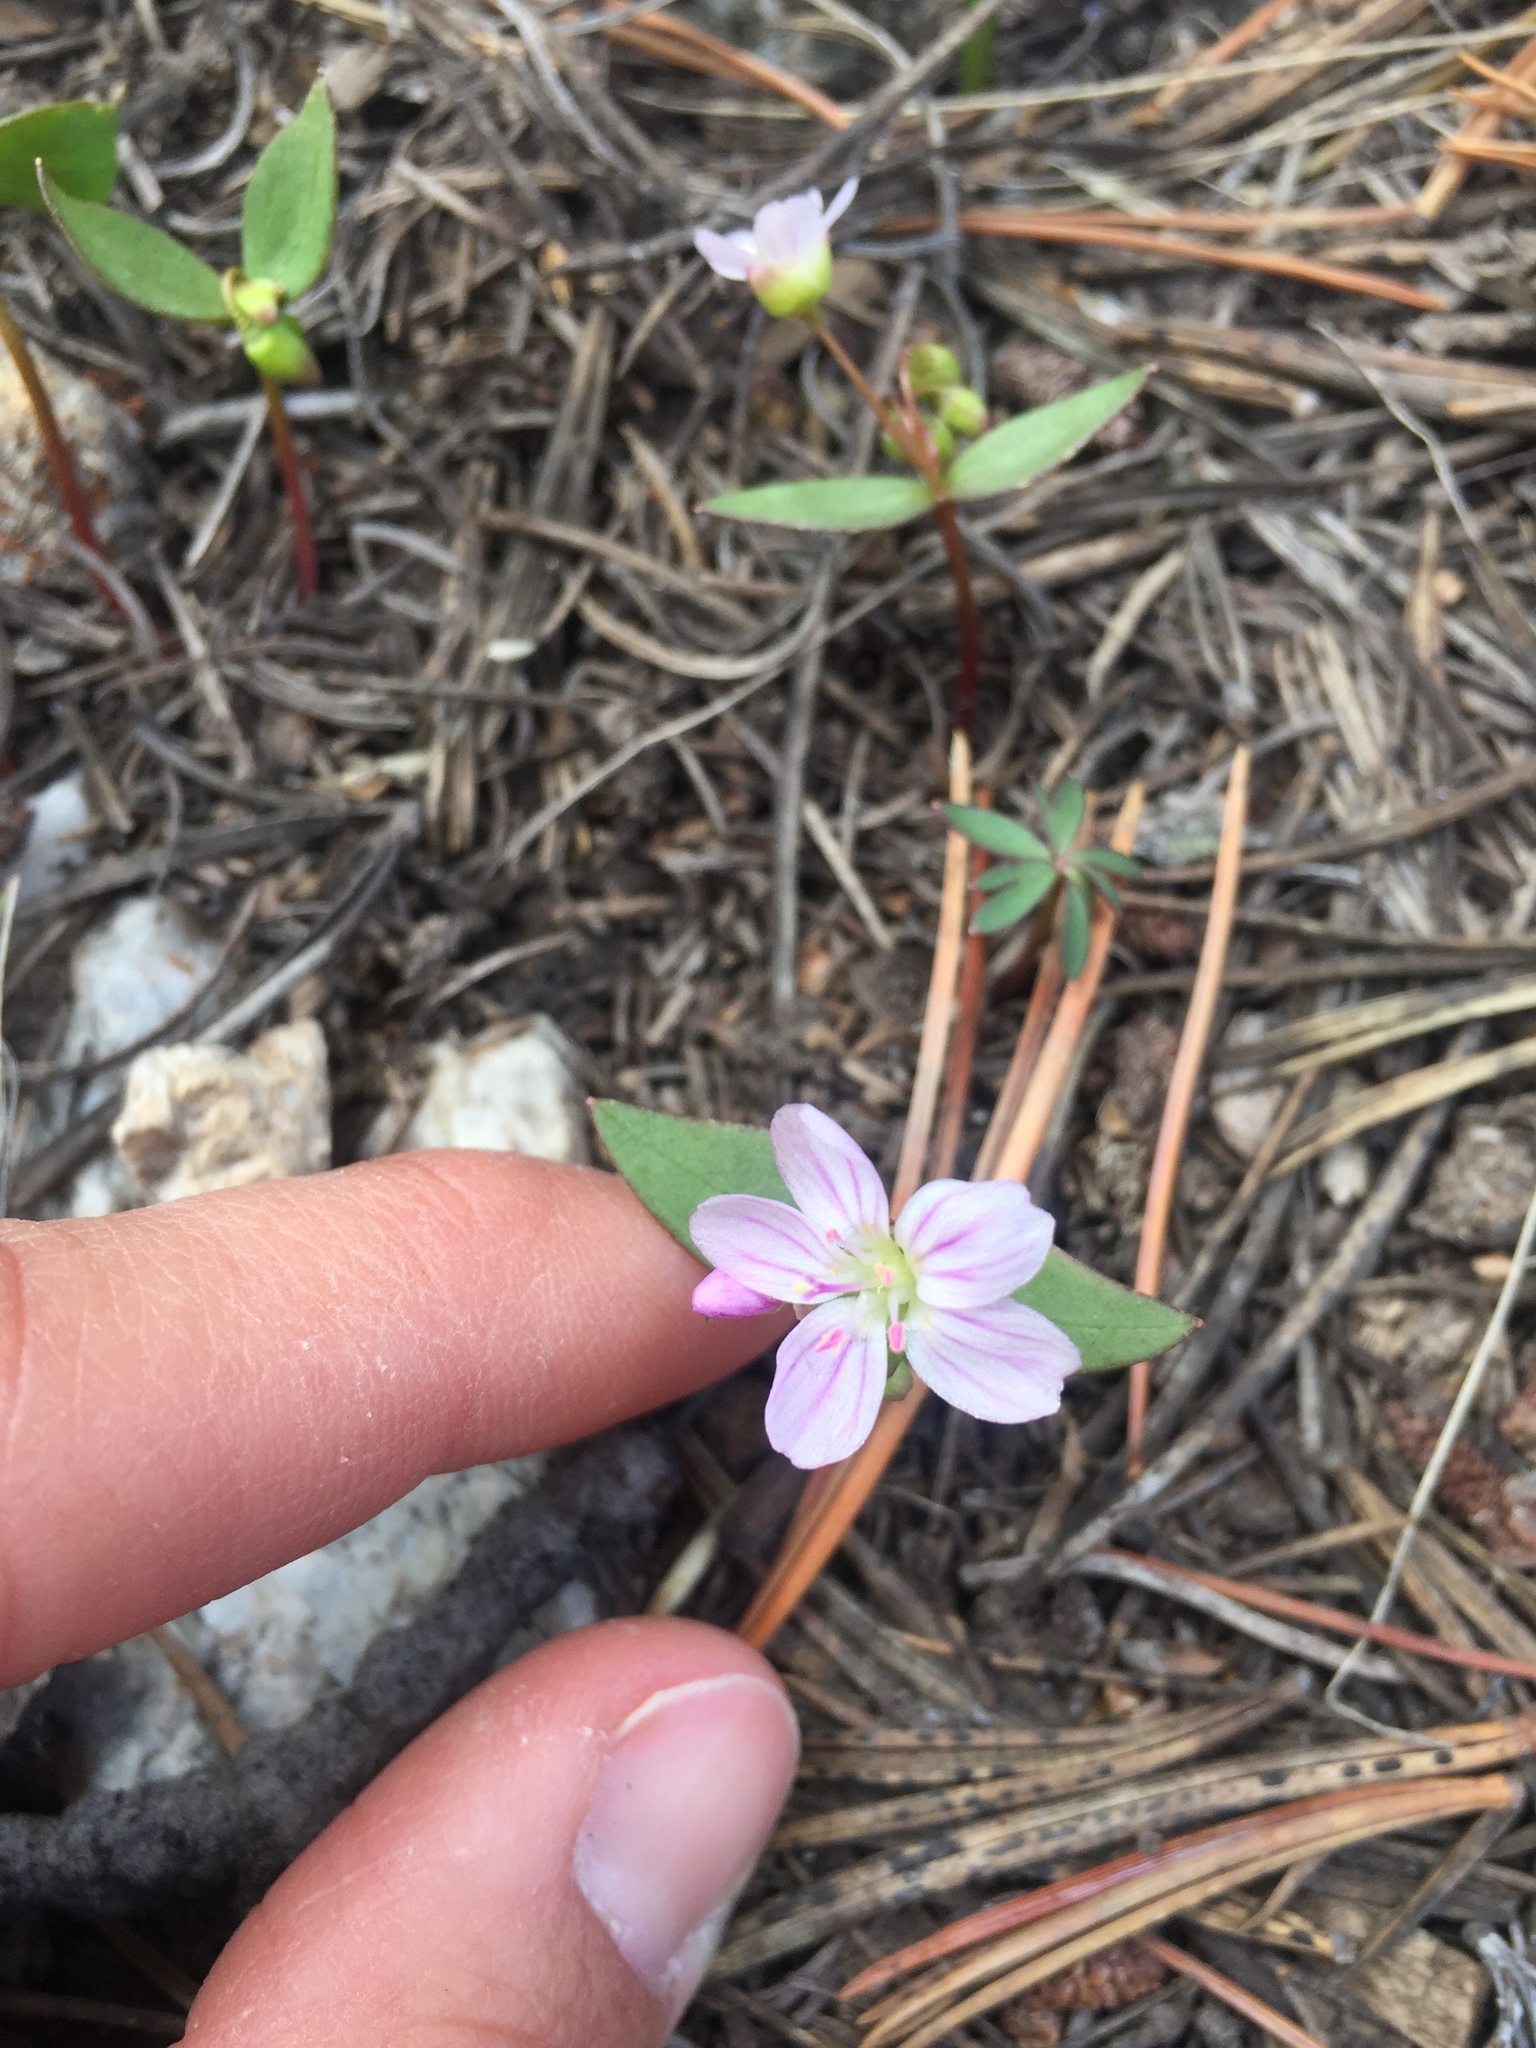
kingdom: Plantae
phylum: Tracheophyta
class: Magnoliopsida
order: Caryophyllales
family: Montiaceae
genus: Claytonia
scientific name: Claytonia lanceolata
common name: Western spring-beauty
